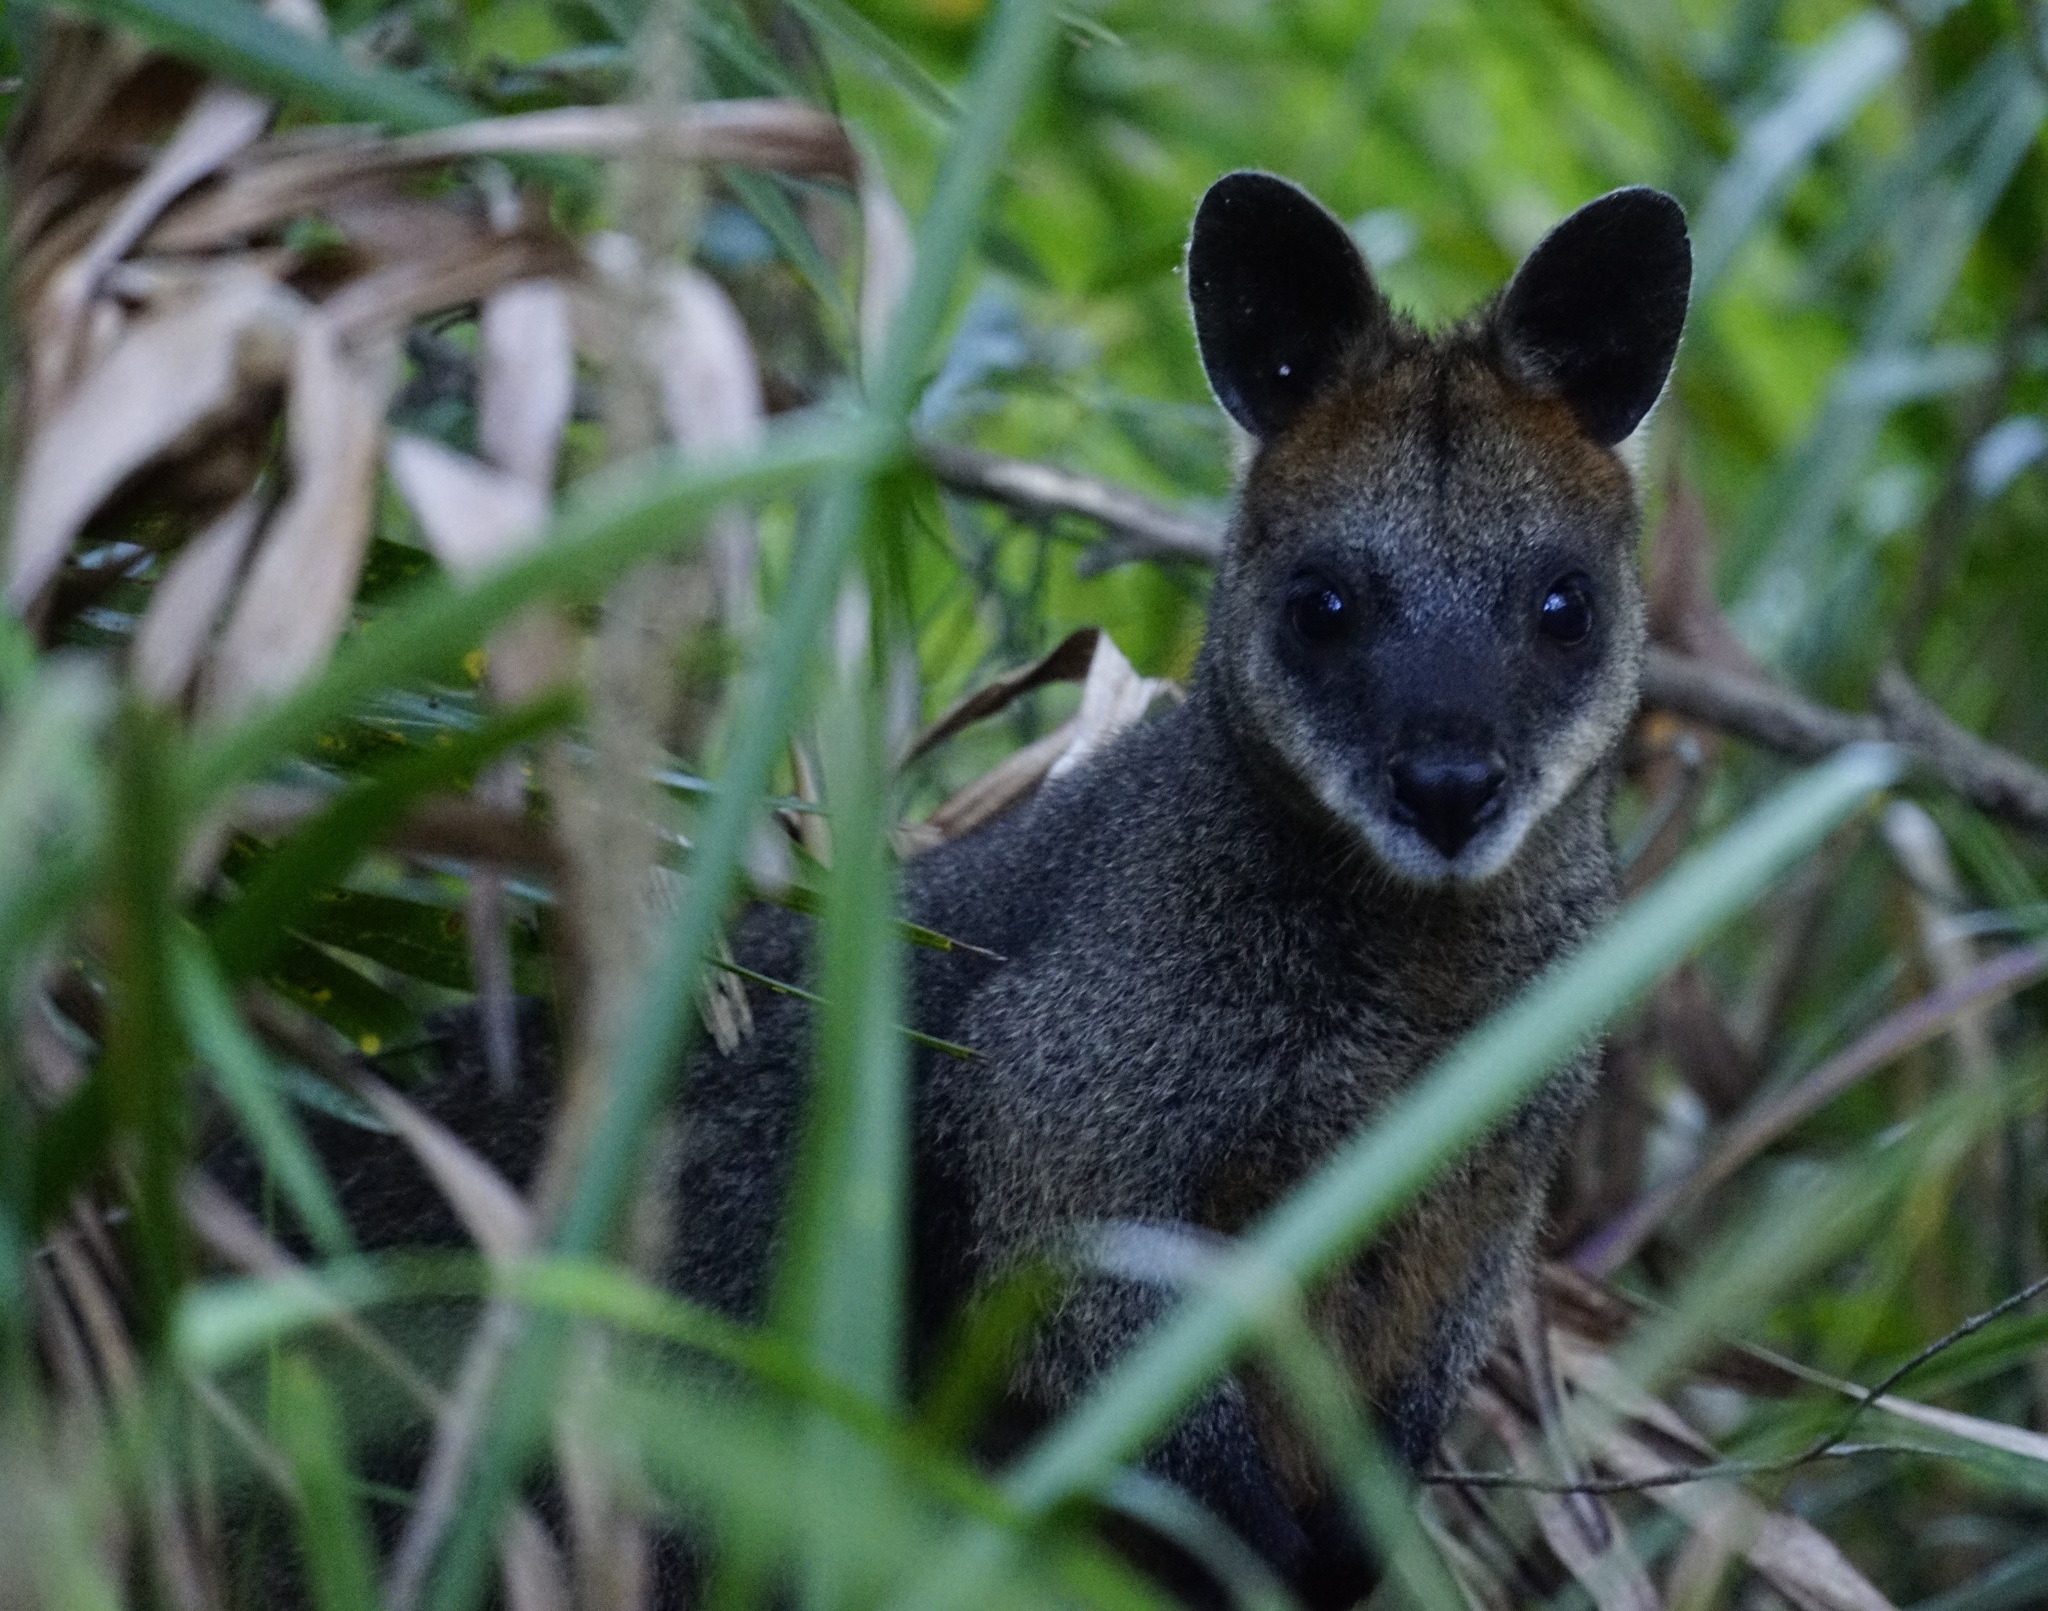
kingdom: Animalia
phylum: Chordata
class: Mammalia
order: Diprotodontia
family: Macropodidae
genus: Wallabia
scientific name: Wallabia bicolor
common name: Swamp wallaby
